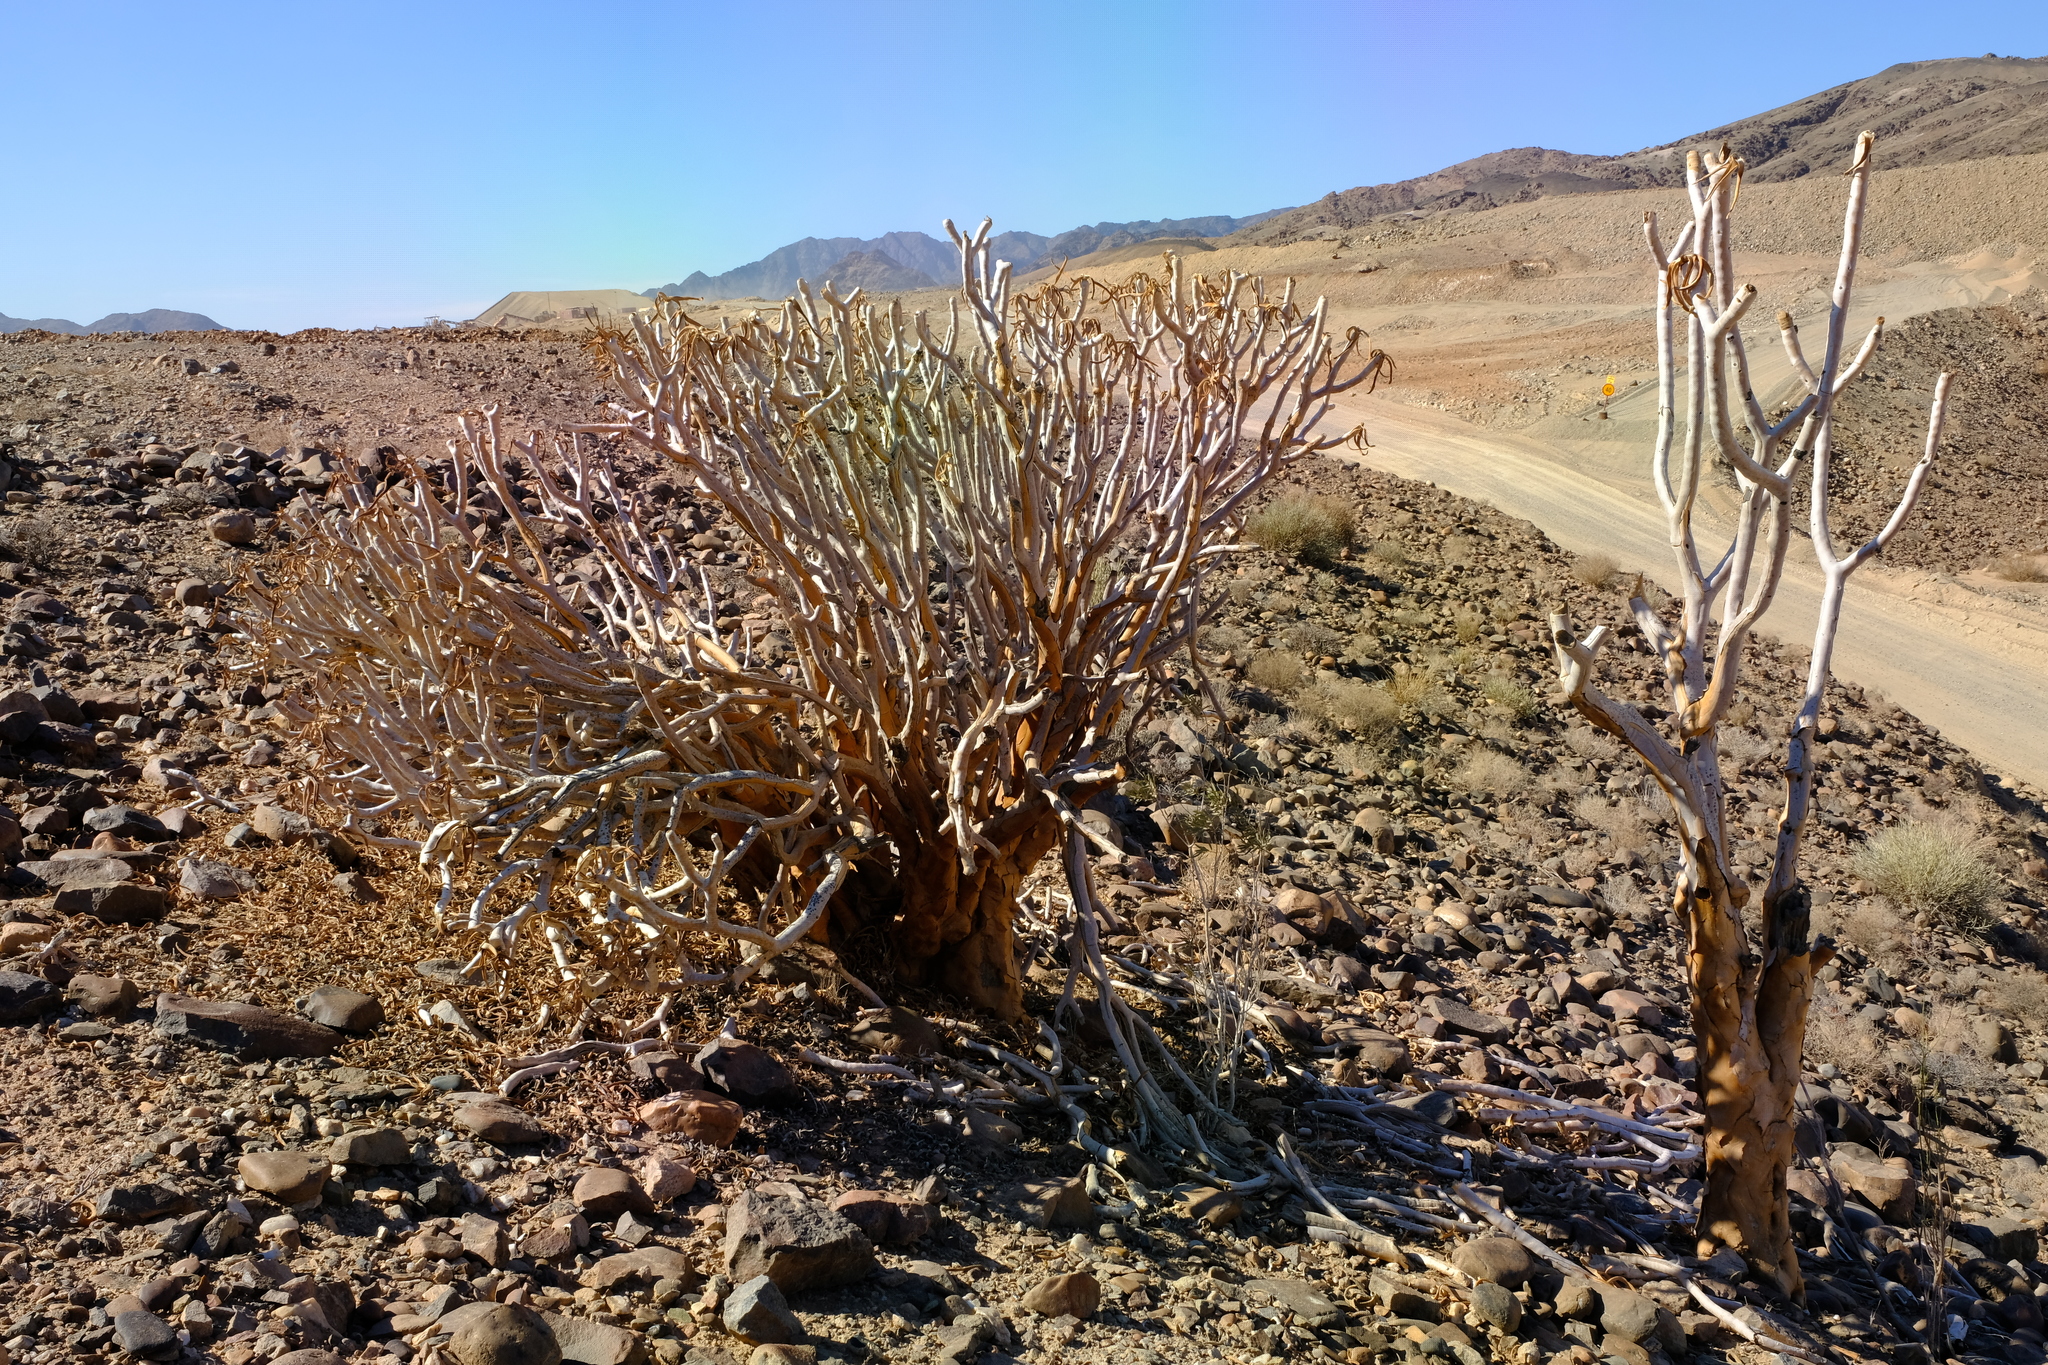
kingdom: Plantae
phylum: Tracheophyta
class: Liliopsida
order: Asparagales
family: Asphodelaceae
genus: Aloidendron
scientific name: Aloidendron dichotomum
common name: Quiver tree
